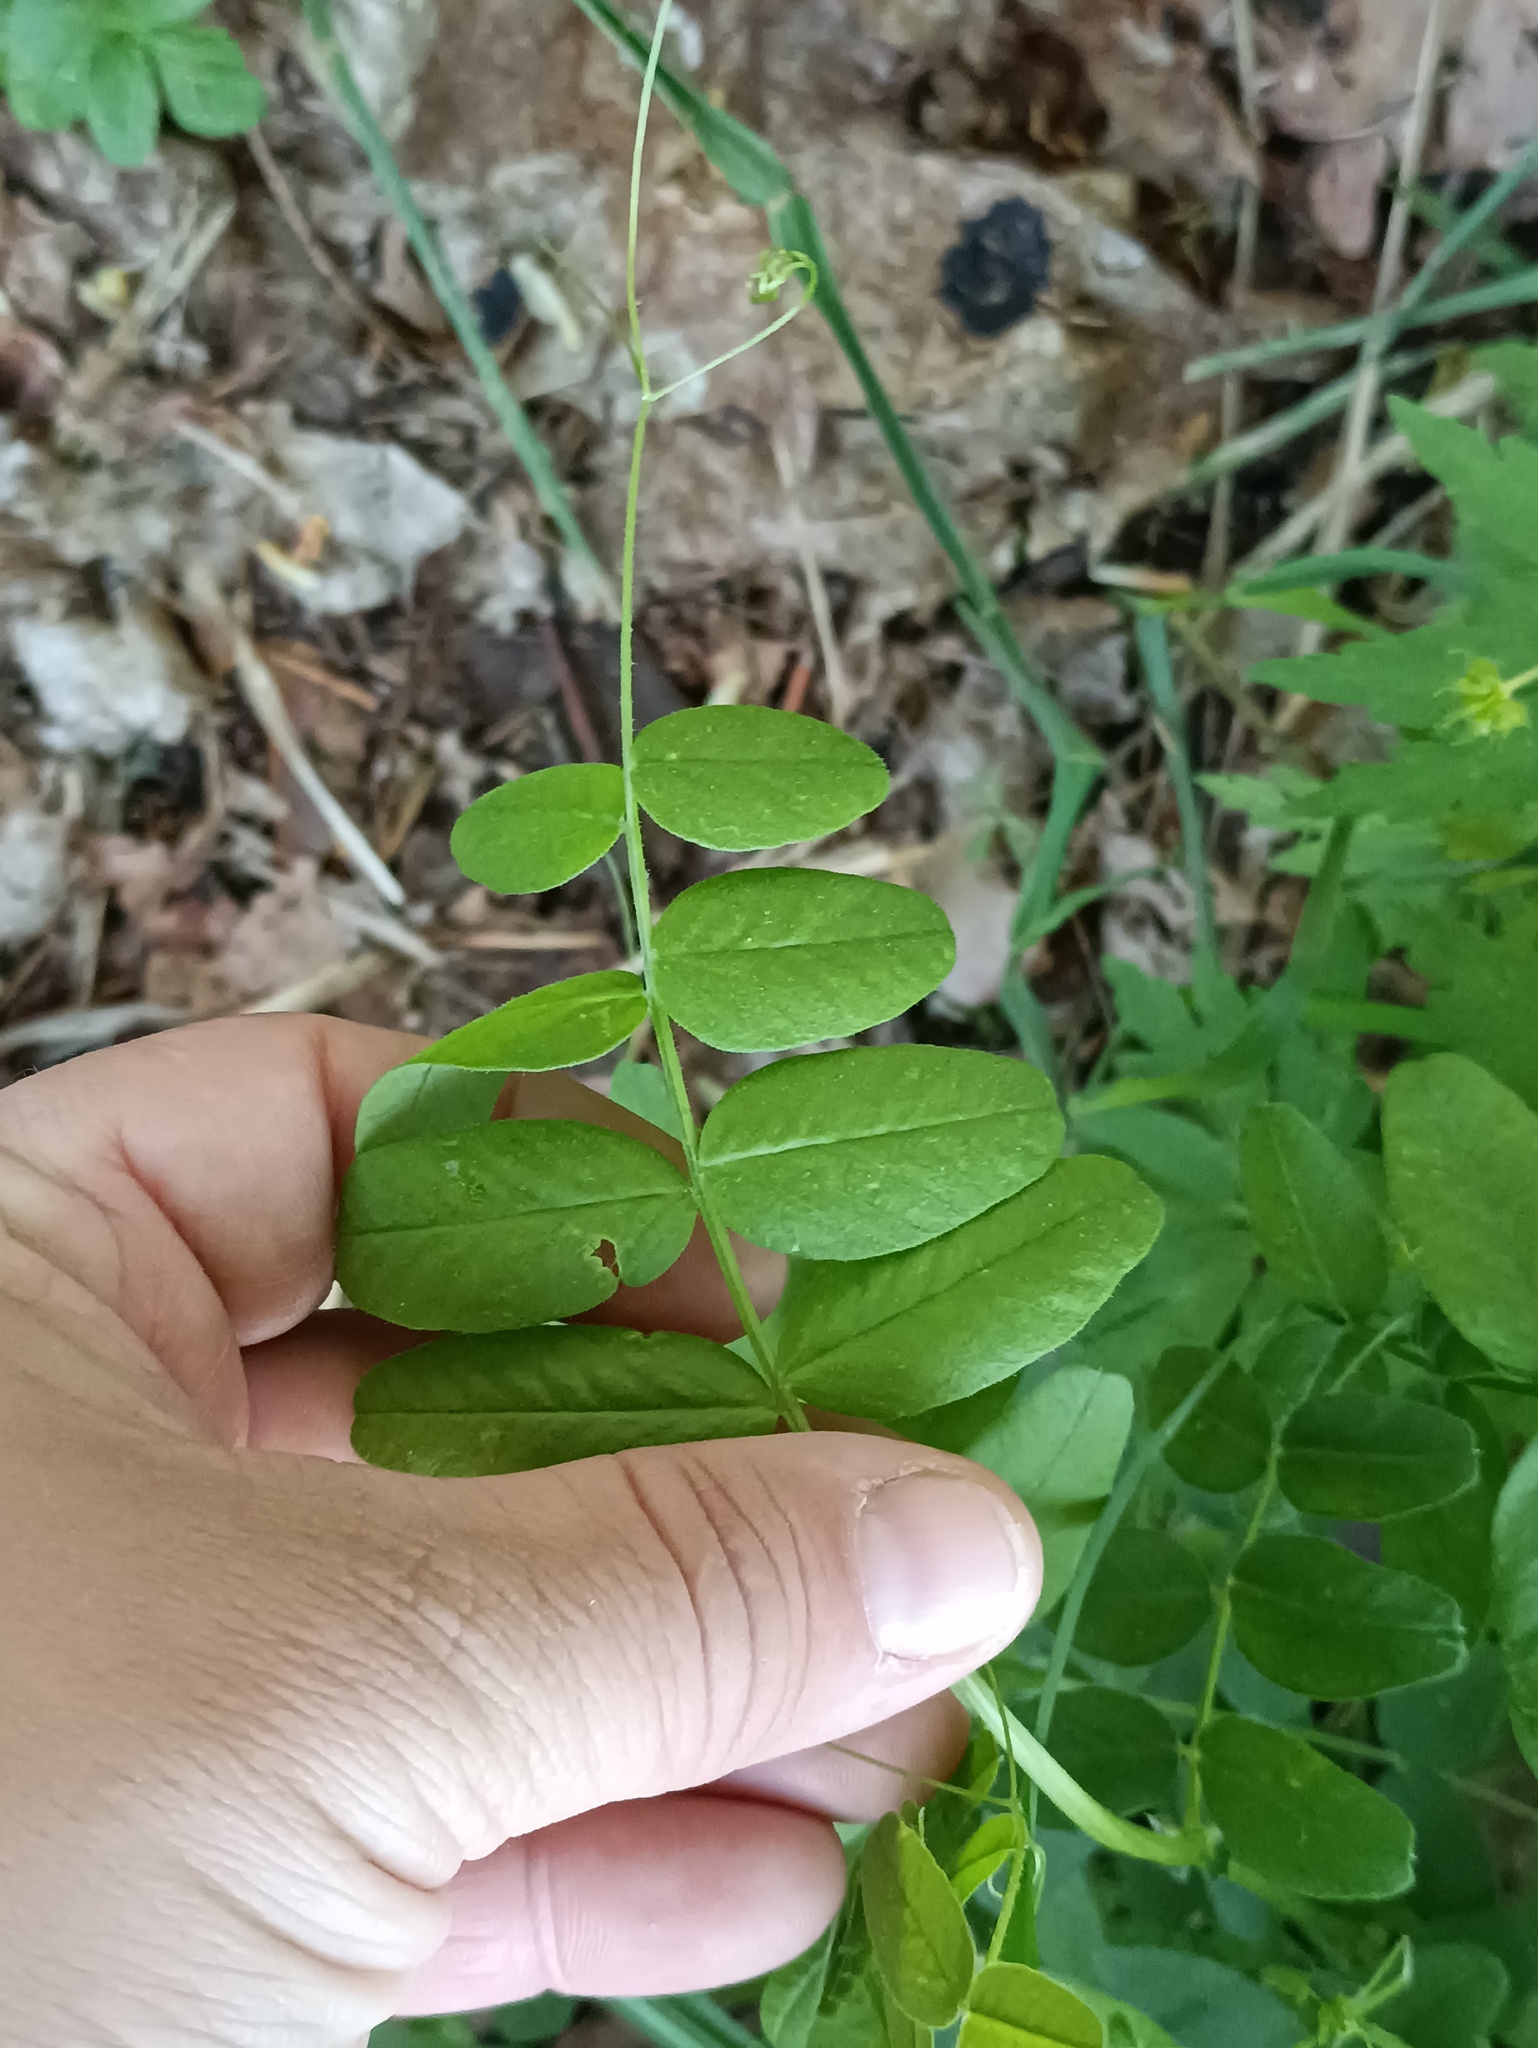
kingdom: Plantae
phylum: Tracheophyta
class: Magnoliopsida
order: Fabales
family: Fabaceae
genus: Vicia
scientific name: Vicia sepium
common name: Bush vetch
